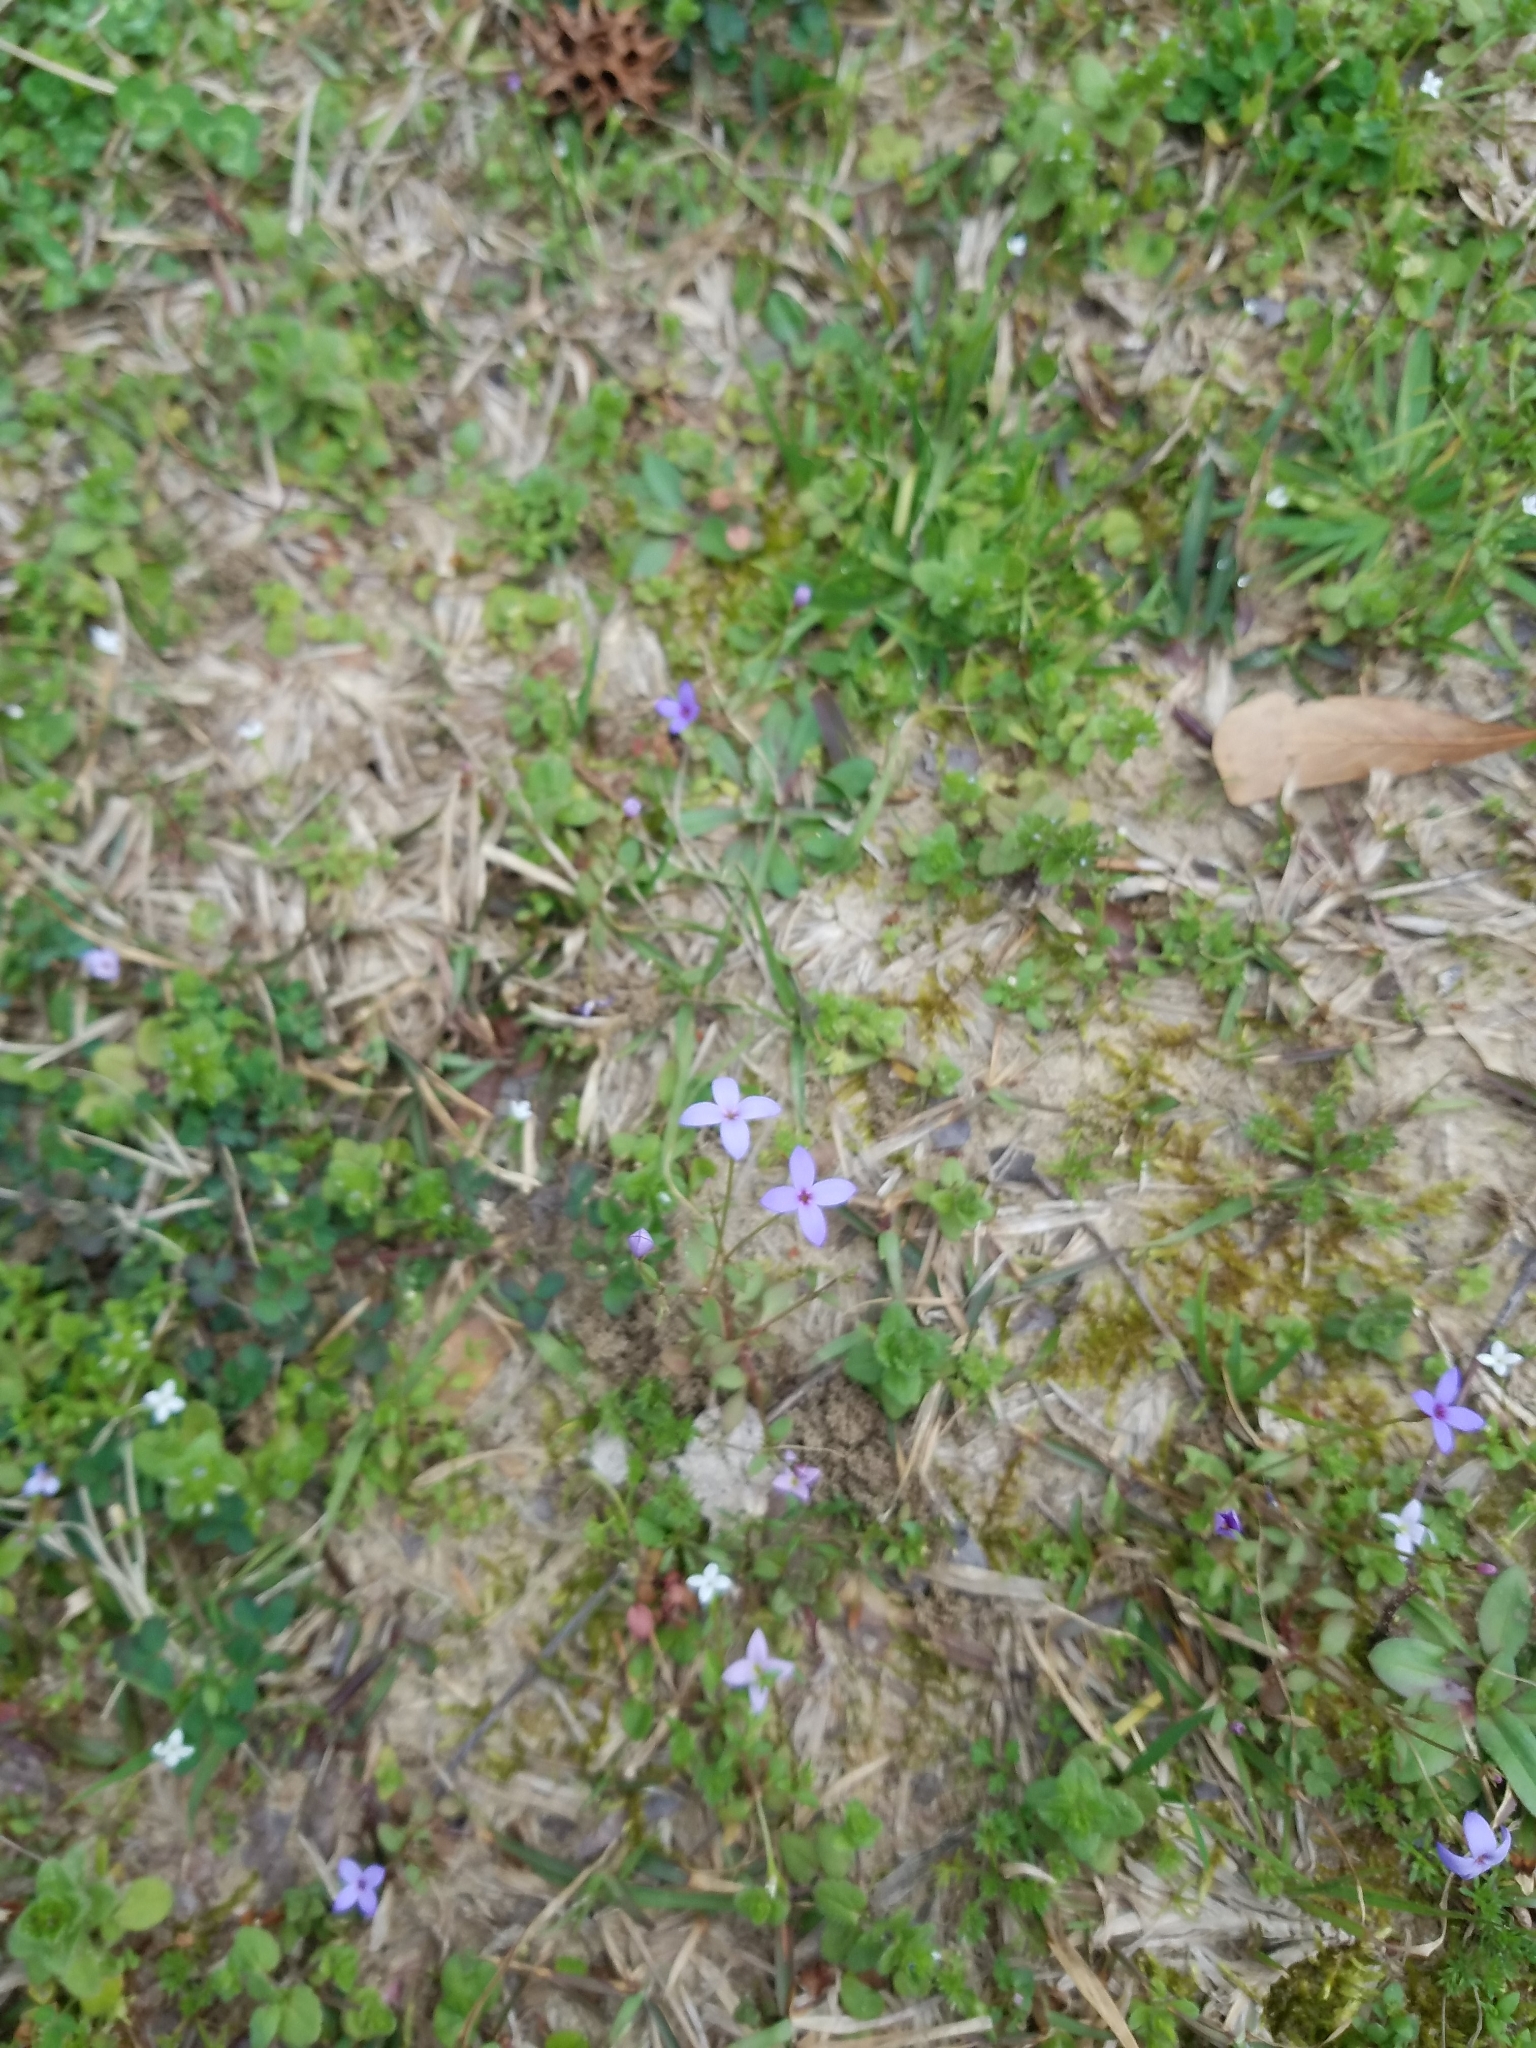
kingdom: Plantae
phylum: Tracheophyta
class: Magnoliopsida
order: Gentianales
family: Rubiaceae
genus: Houstonia
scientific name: Houstonia pusilla
